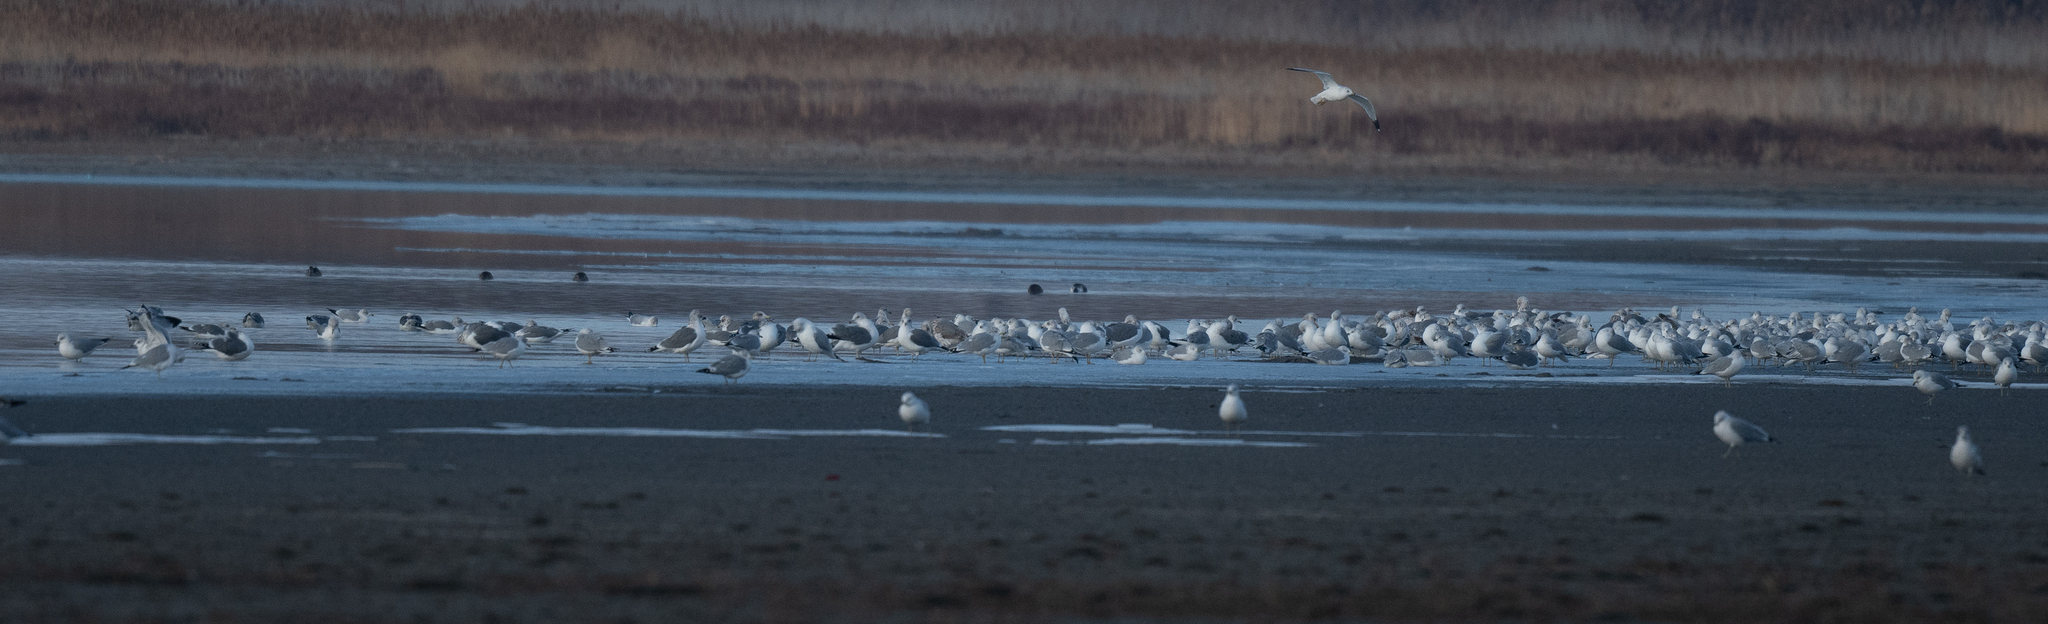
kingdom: Animalia
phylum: Chordata
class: Aves
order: Charadriiformes
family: Laridae
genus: Larus
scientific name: Larus delawarensis
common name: Ring-billed gull
